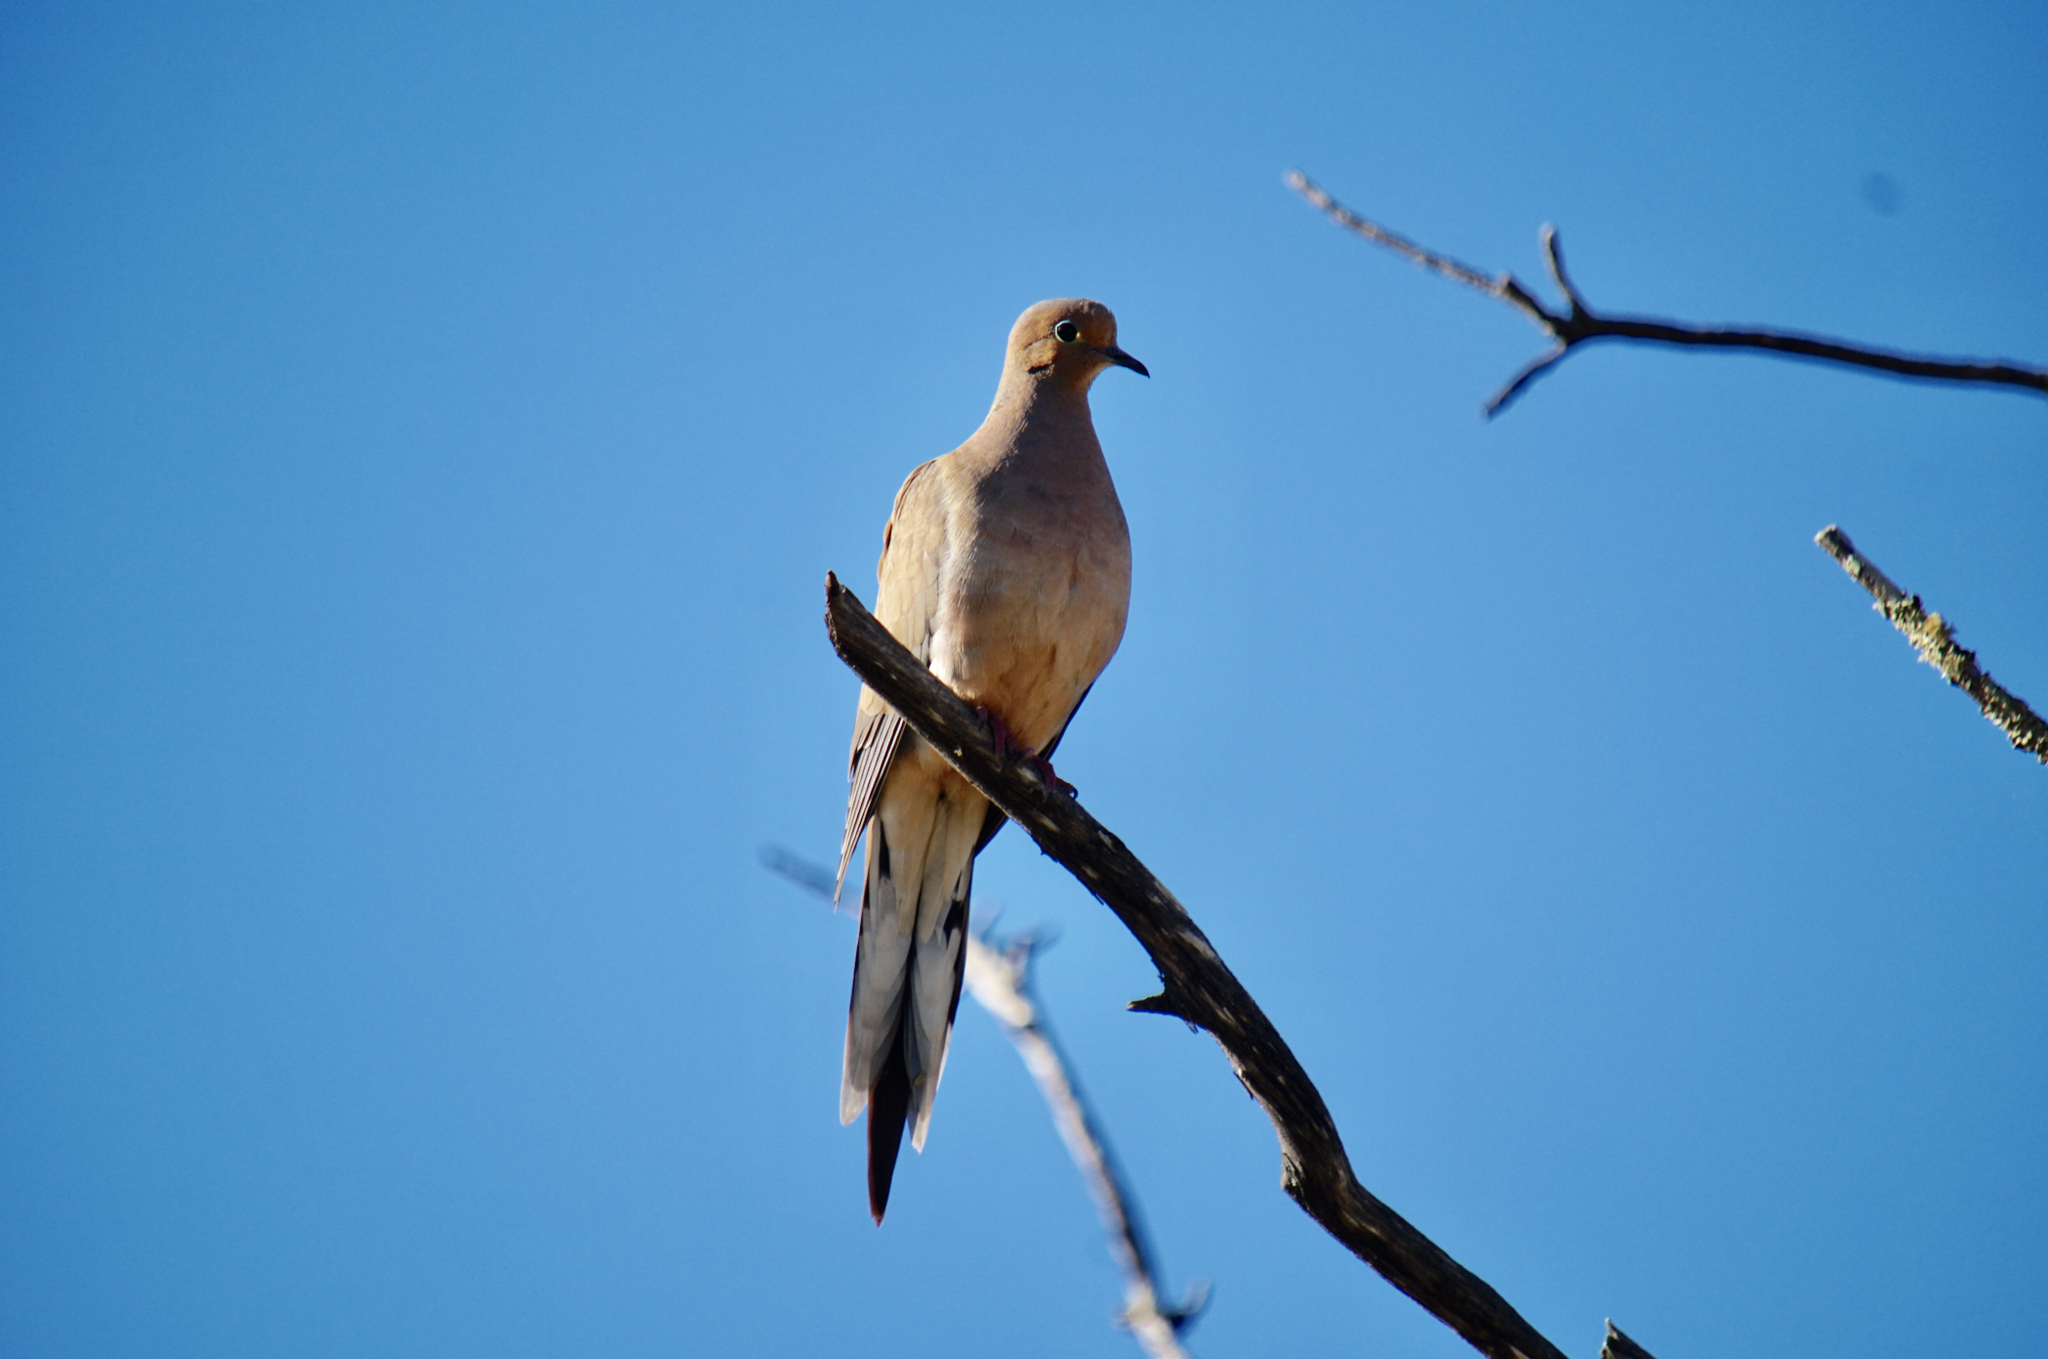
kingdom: Animalia
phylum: Chordata
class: Aves
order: Columbiformes
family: Columbidae
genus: Zenaida
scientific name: Zenaida macroura
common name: Mourning dove
